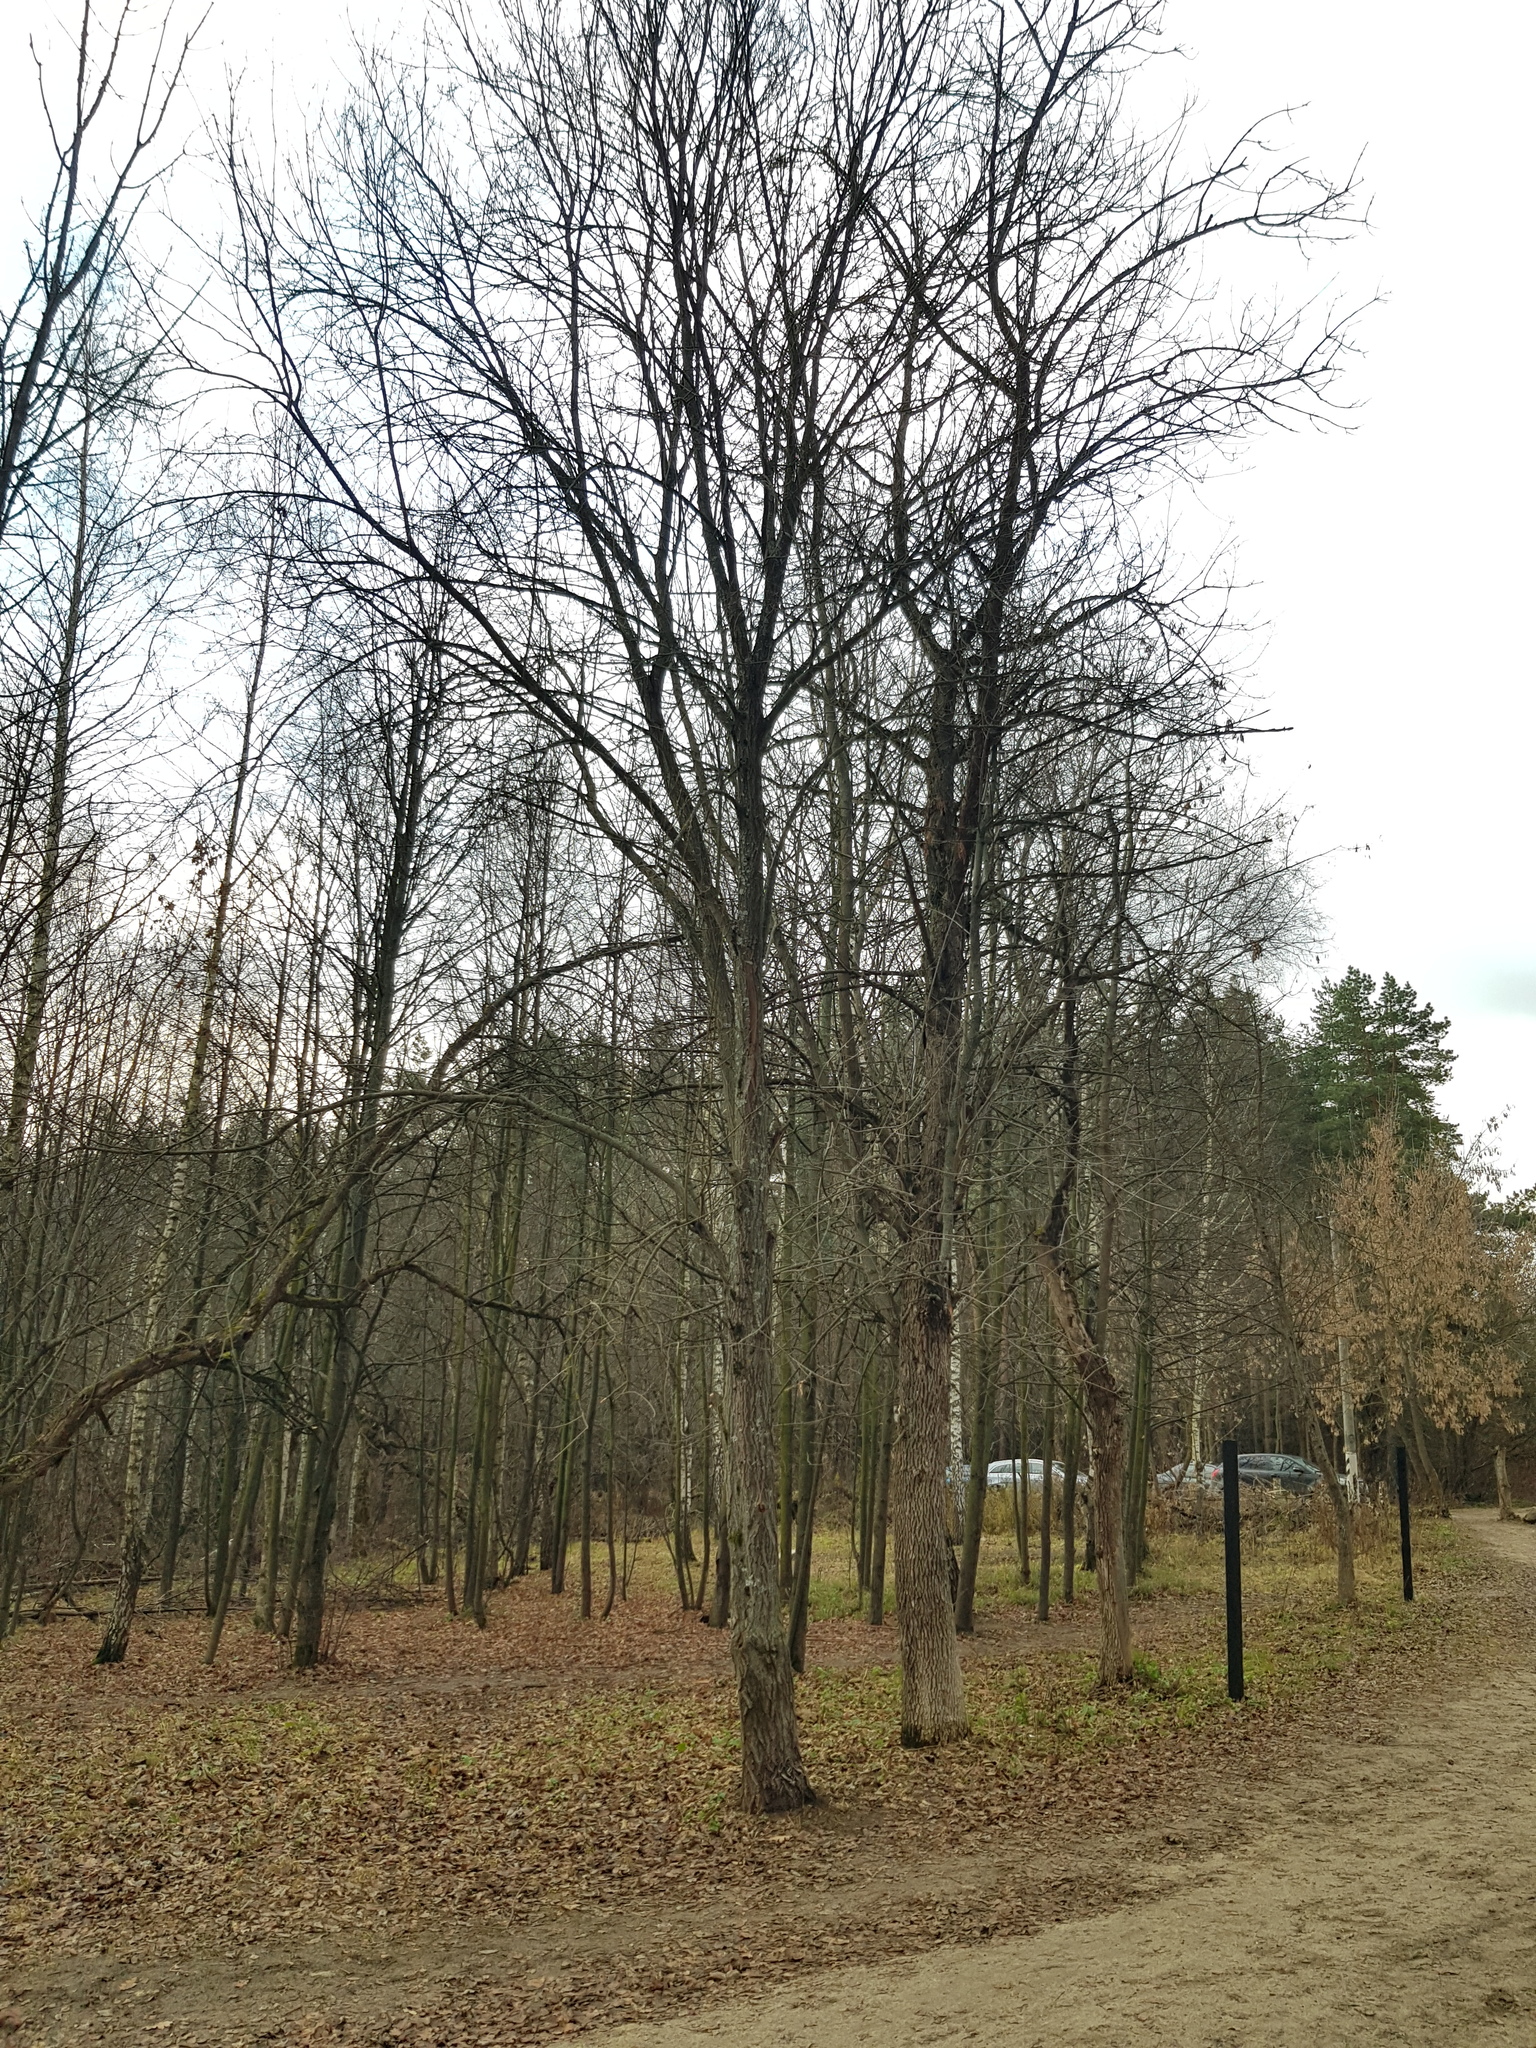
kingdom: Plantae
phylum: Tracheophyta
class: Magnoliopsida
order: Fagales
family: Fagaceae
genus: Quercus
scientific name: Quercus robur
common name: Pedunculate oak
